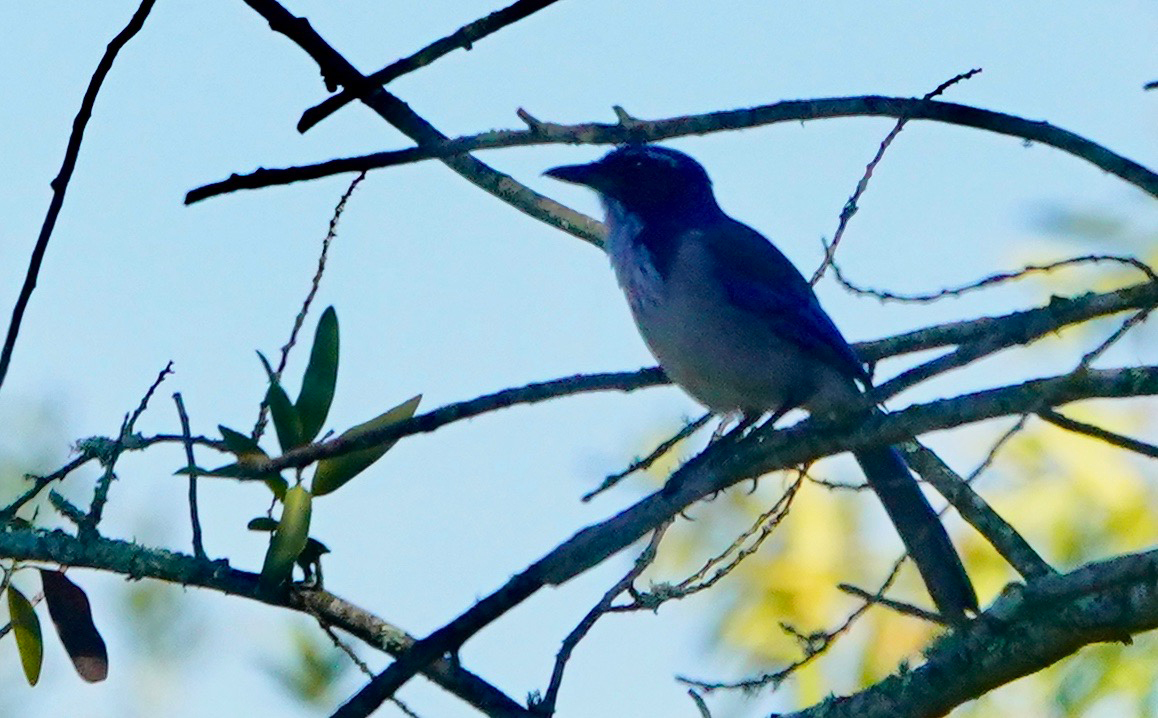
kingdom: Animalia
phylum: Chordata
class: Aves
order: Passeriformes
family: Corvidae
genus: Aphelocoma
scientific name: Aphelocoma californica
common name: California scrub-jay
